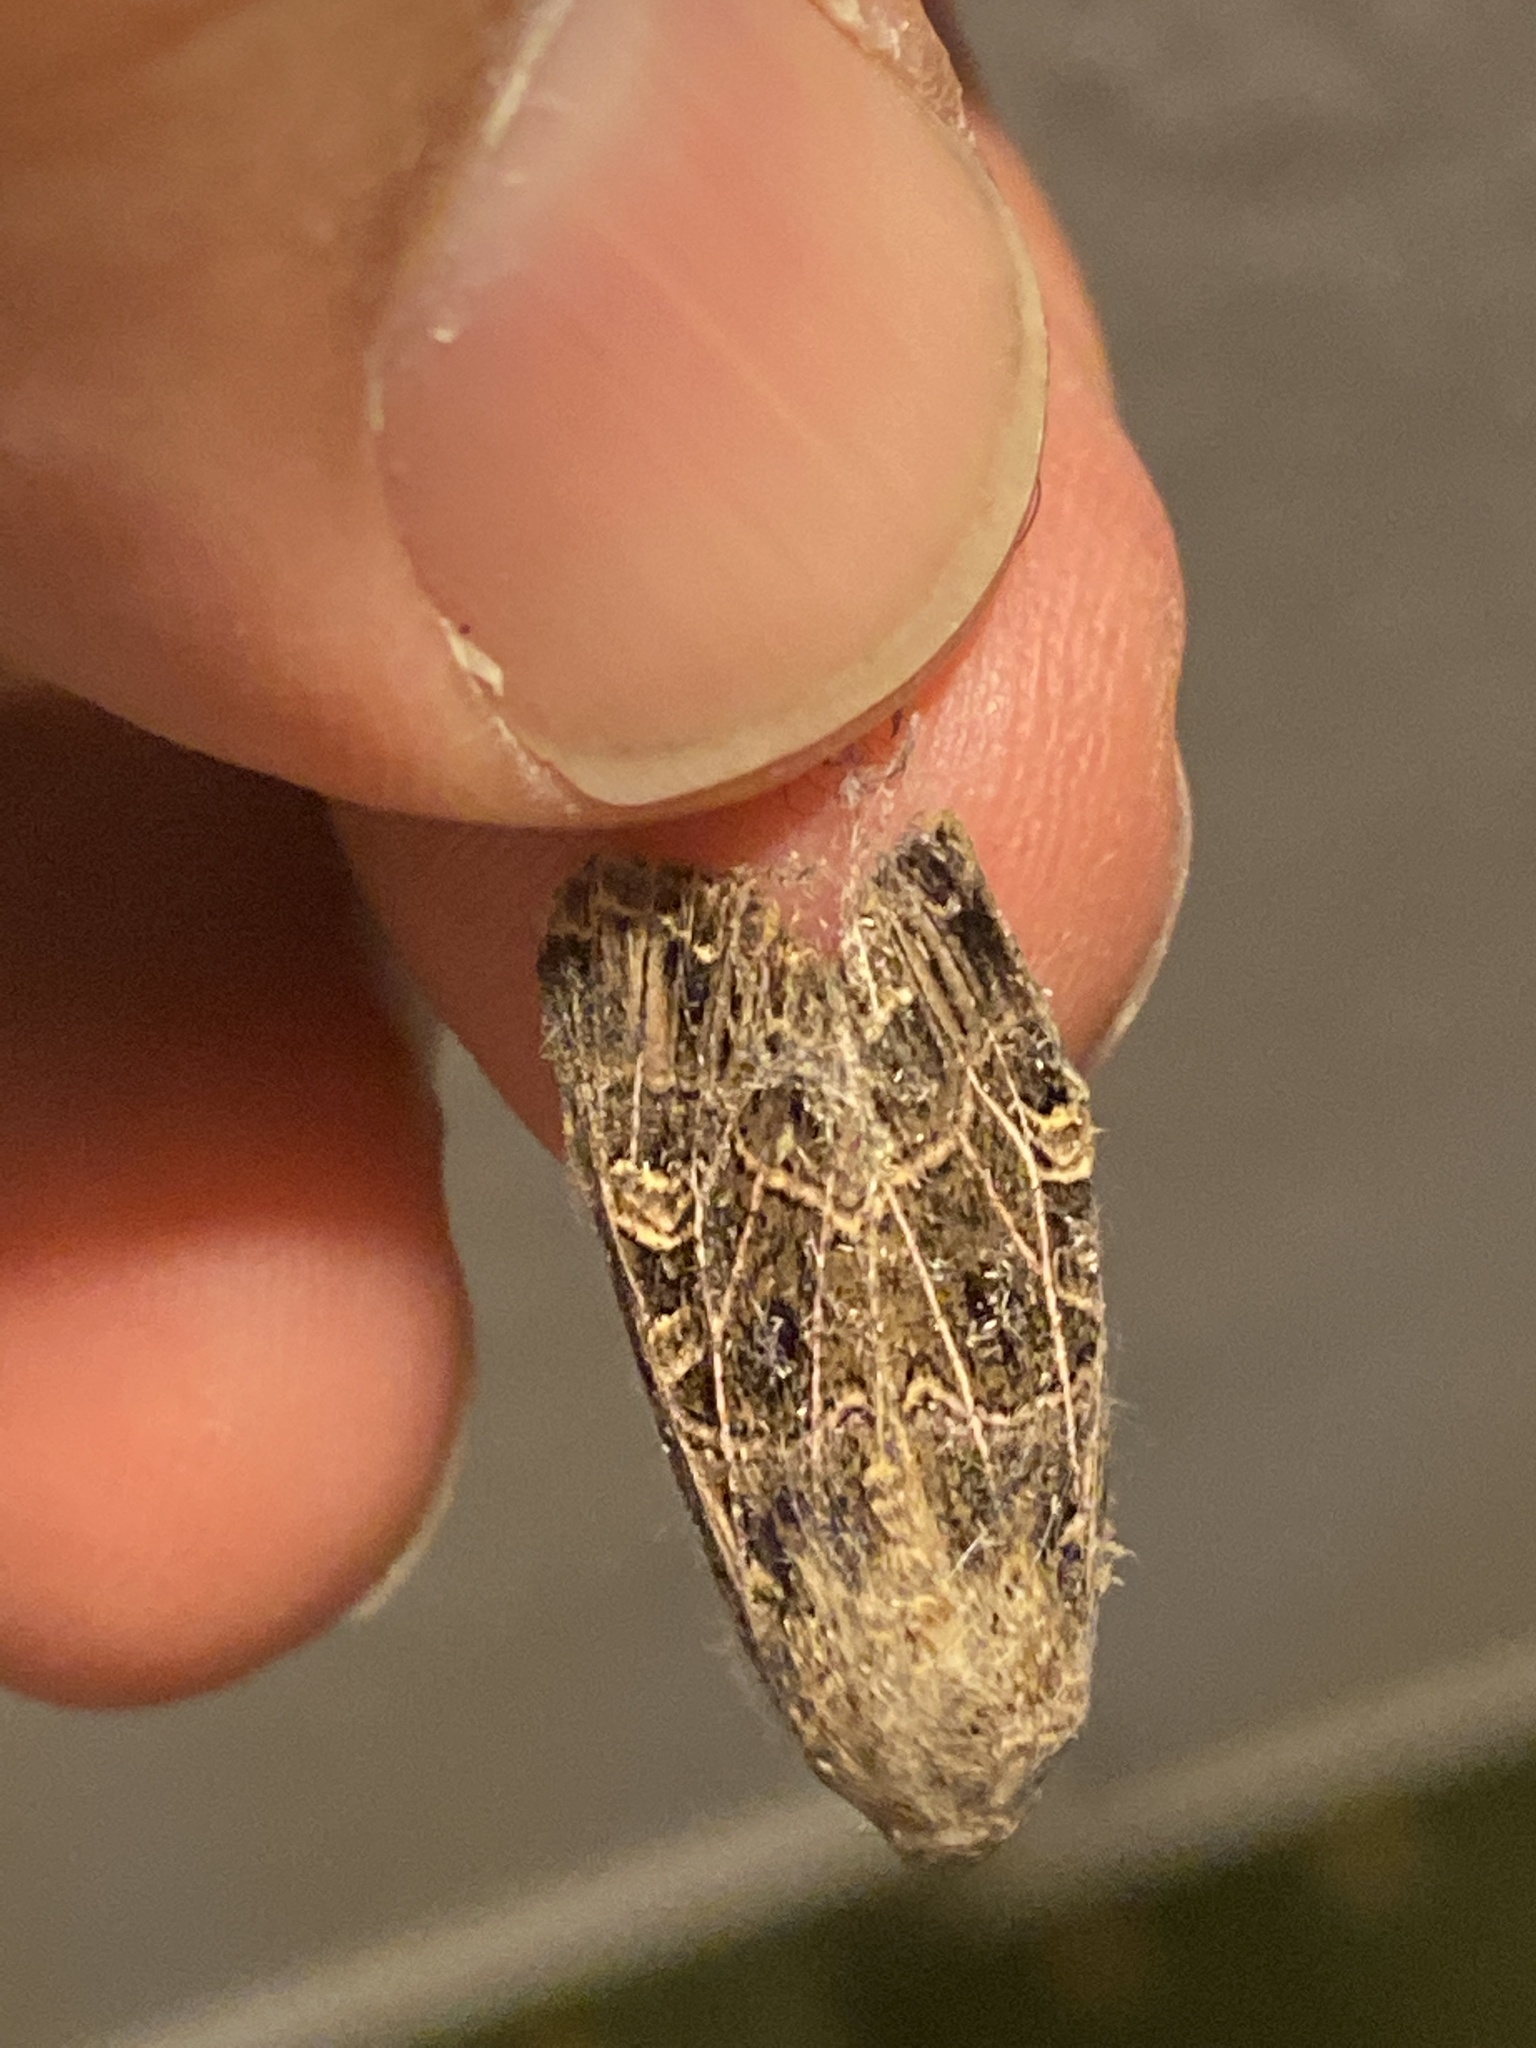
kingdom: Animalia
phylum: Arthropoda
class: Insecta
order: Lepidoptera
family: Noctuidae
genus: Sideridis
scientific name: Sideridis reticulata
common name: Bordered gothic
